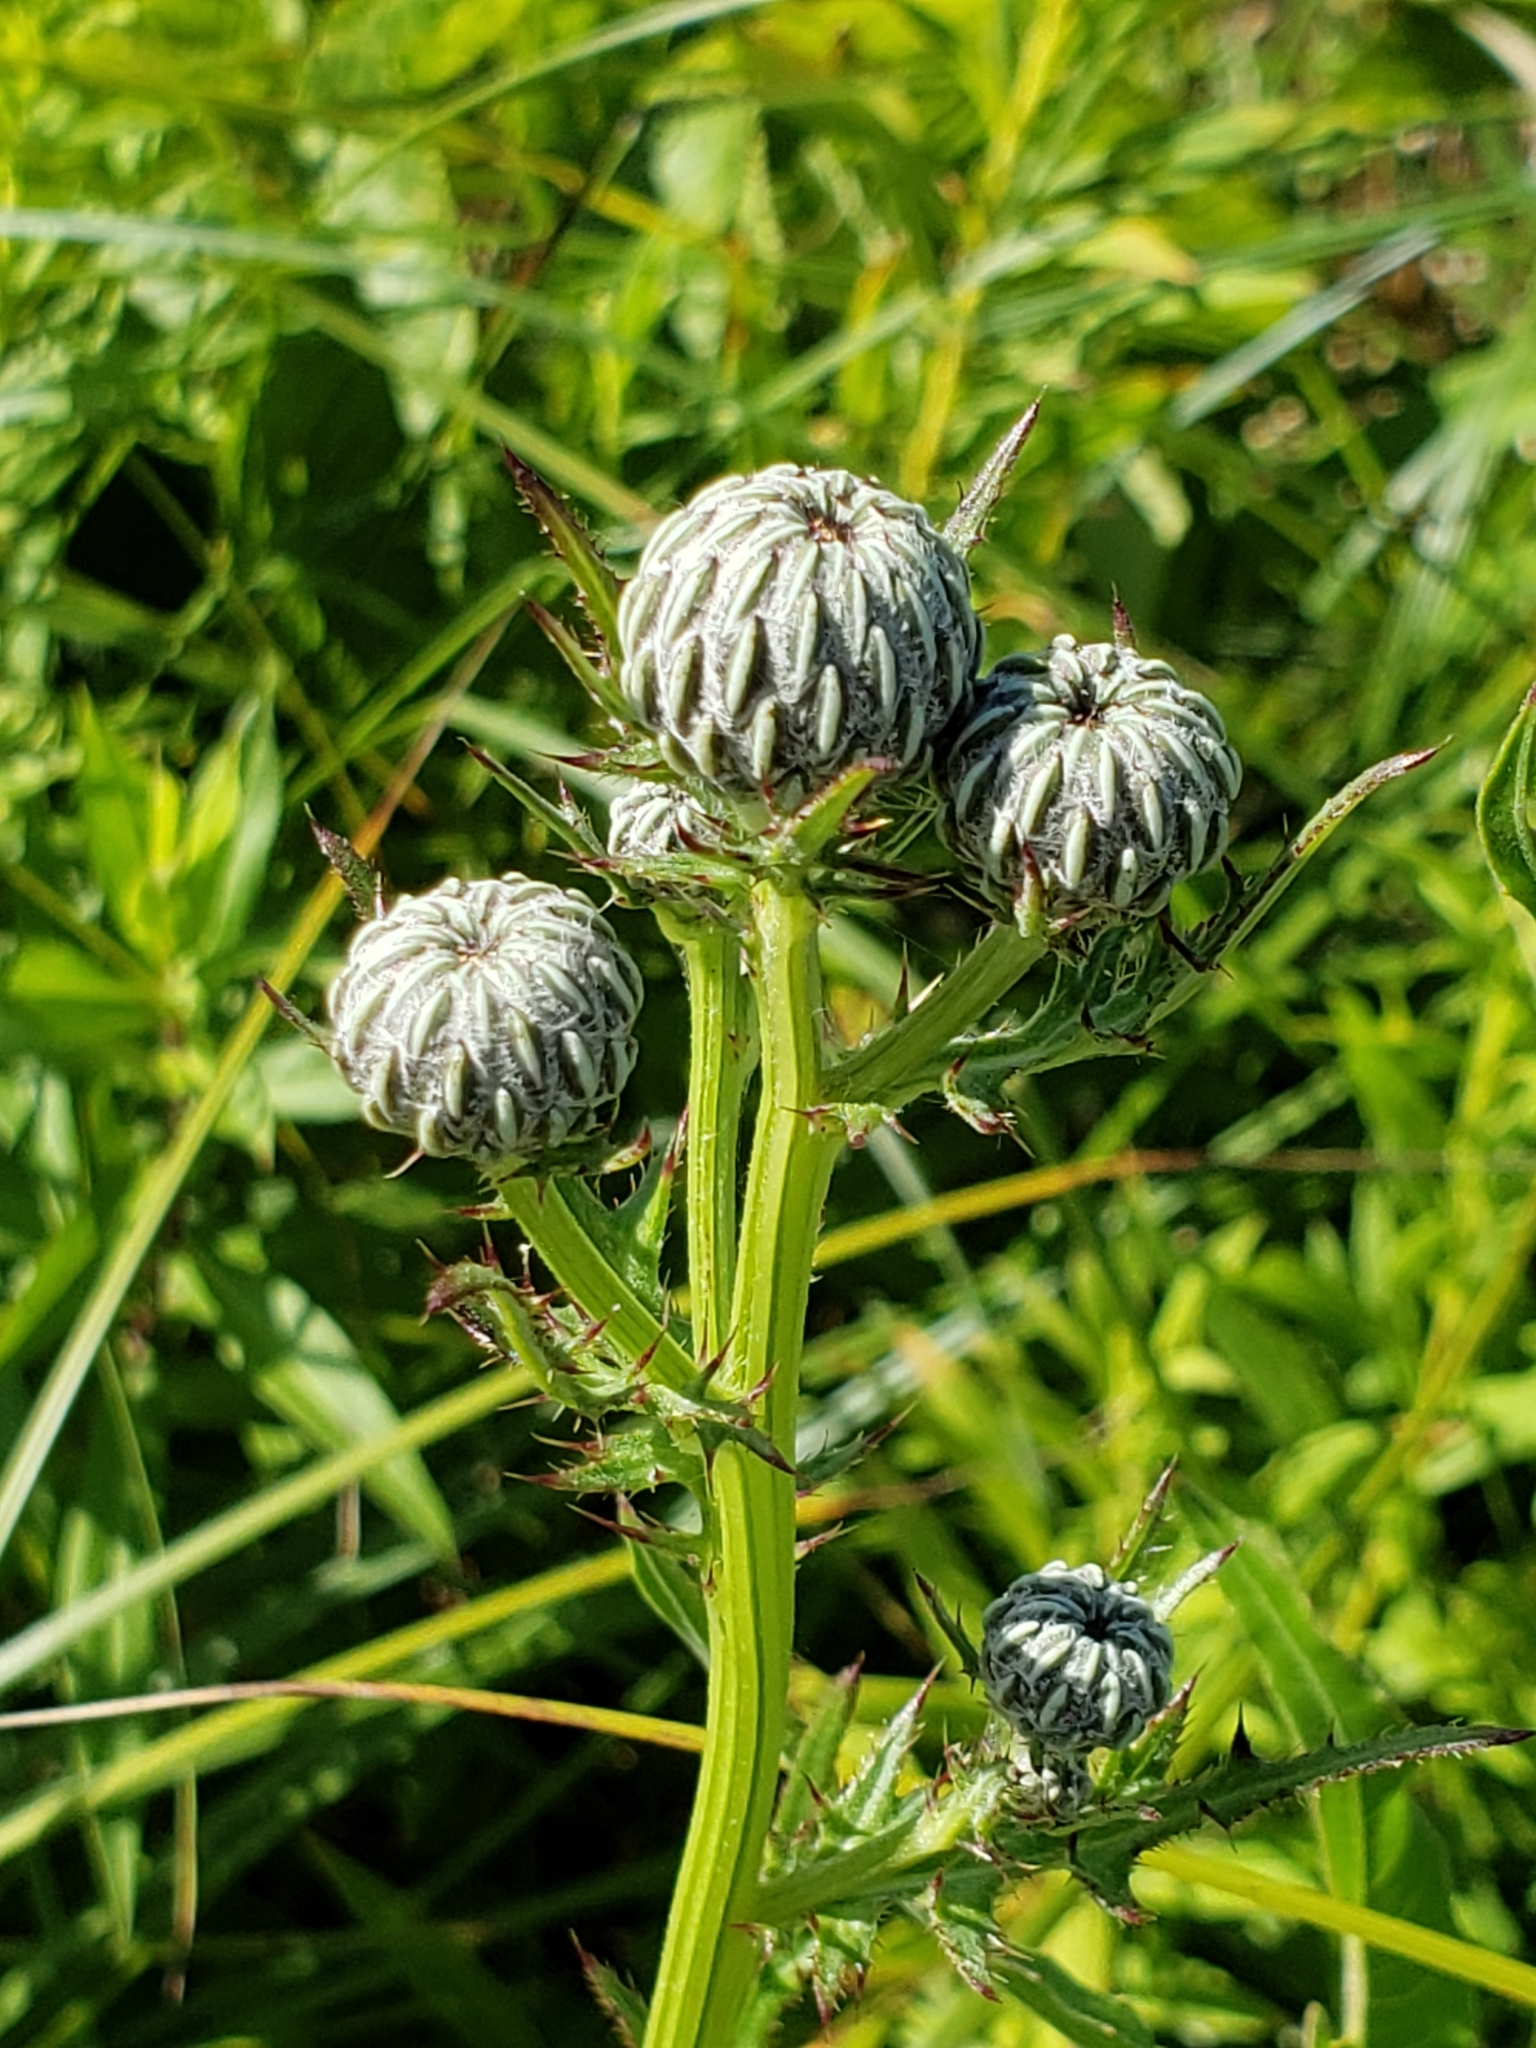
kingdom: Plantae
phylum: Tracheophyta
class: Magnoliopsida
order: Asterales
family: Asteraceae
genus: Cirsium
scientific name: Cirsium muticum
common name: Dunce-nettle
